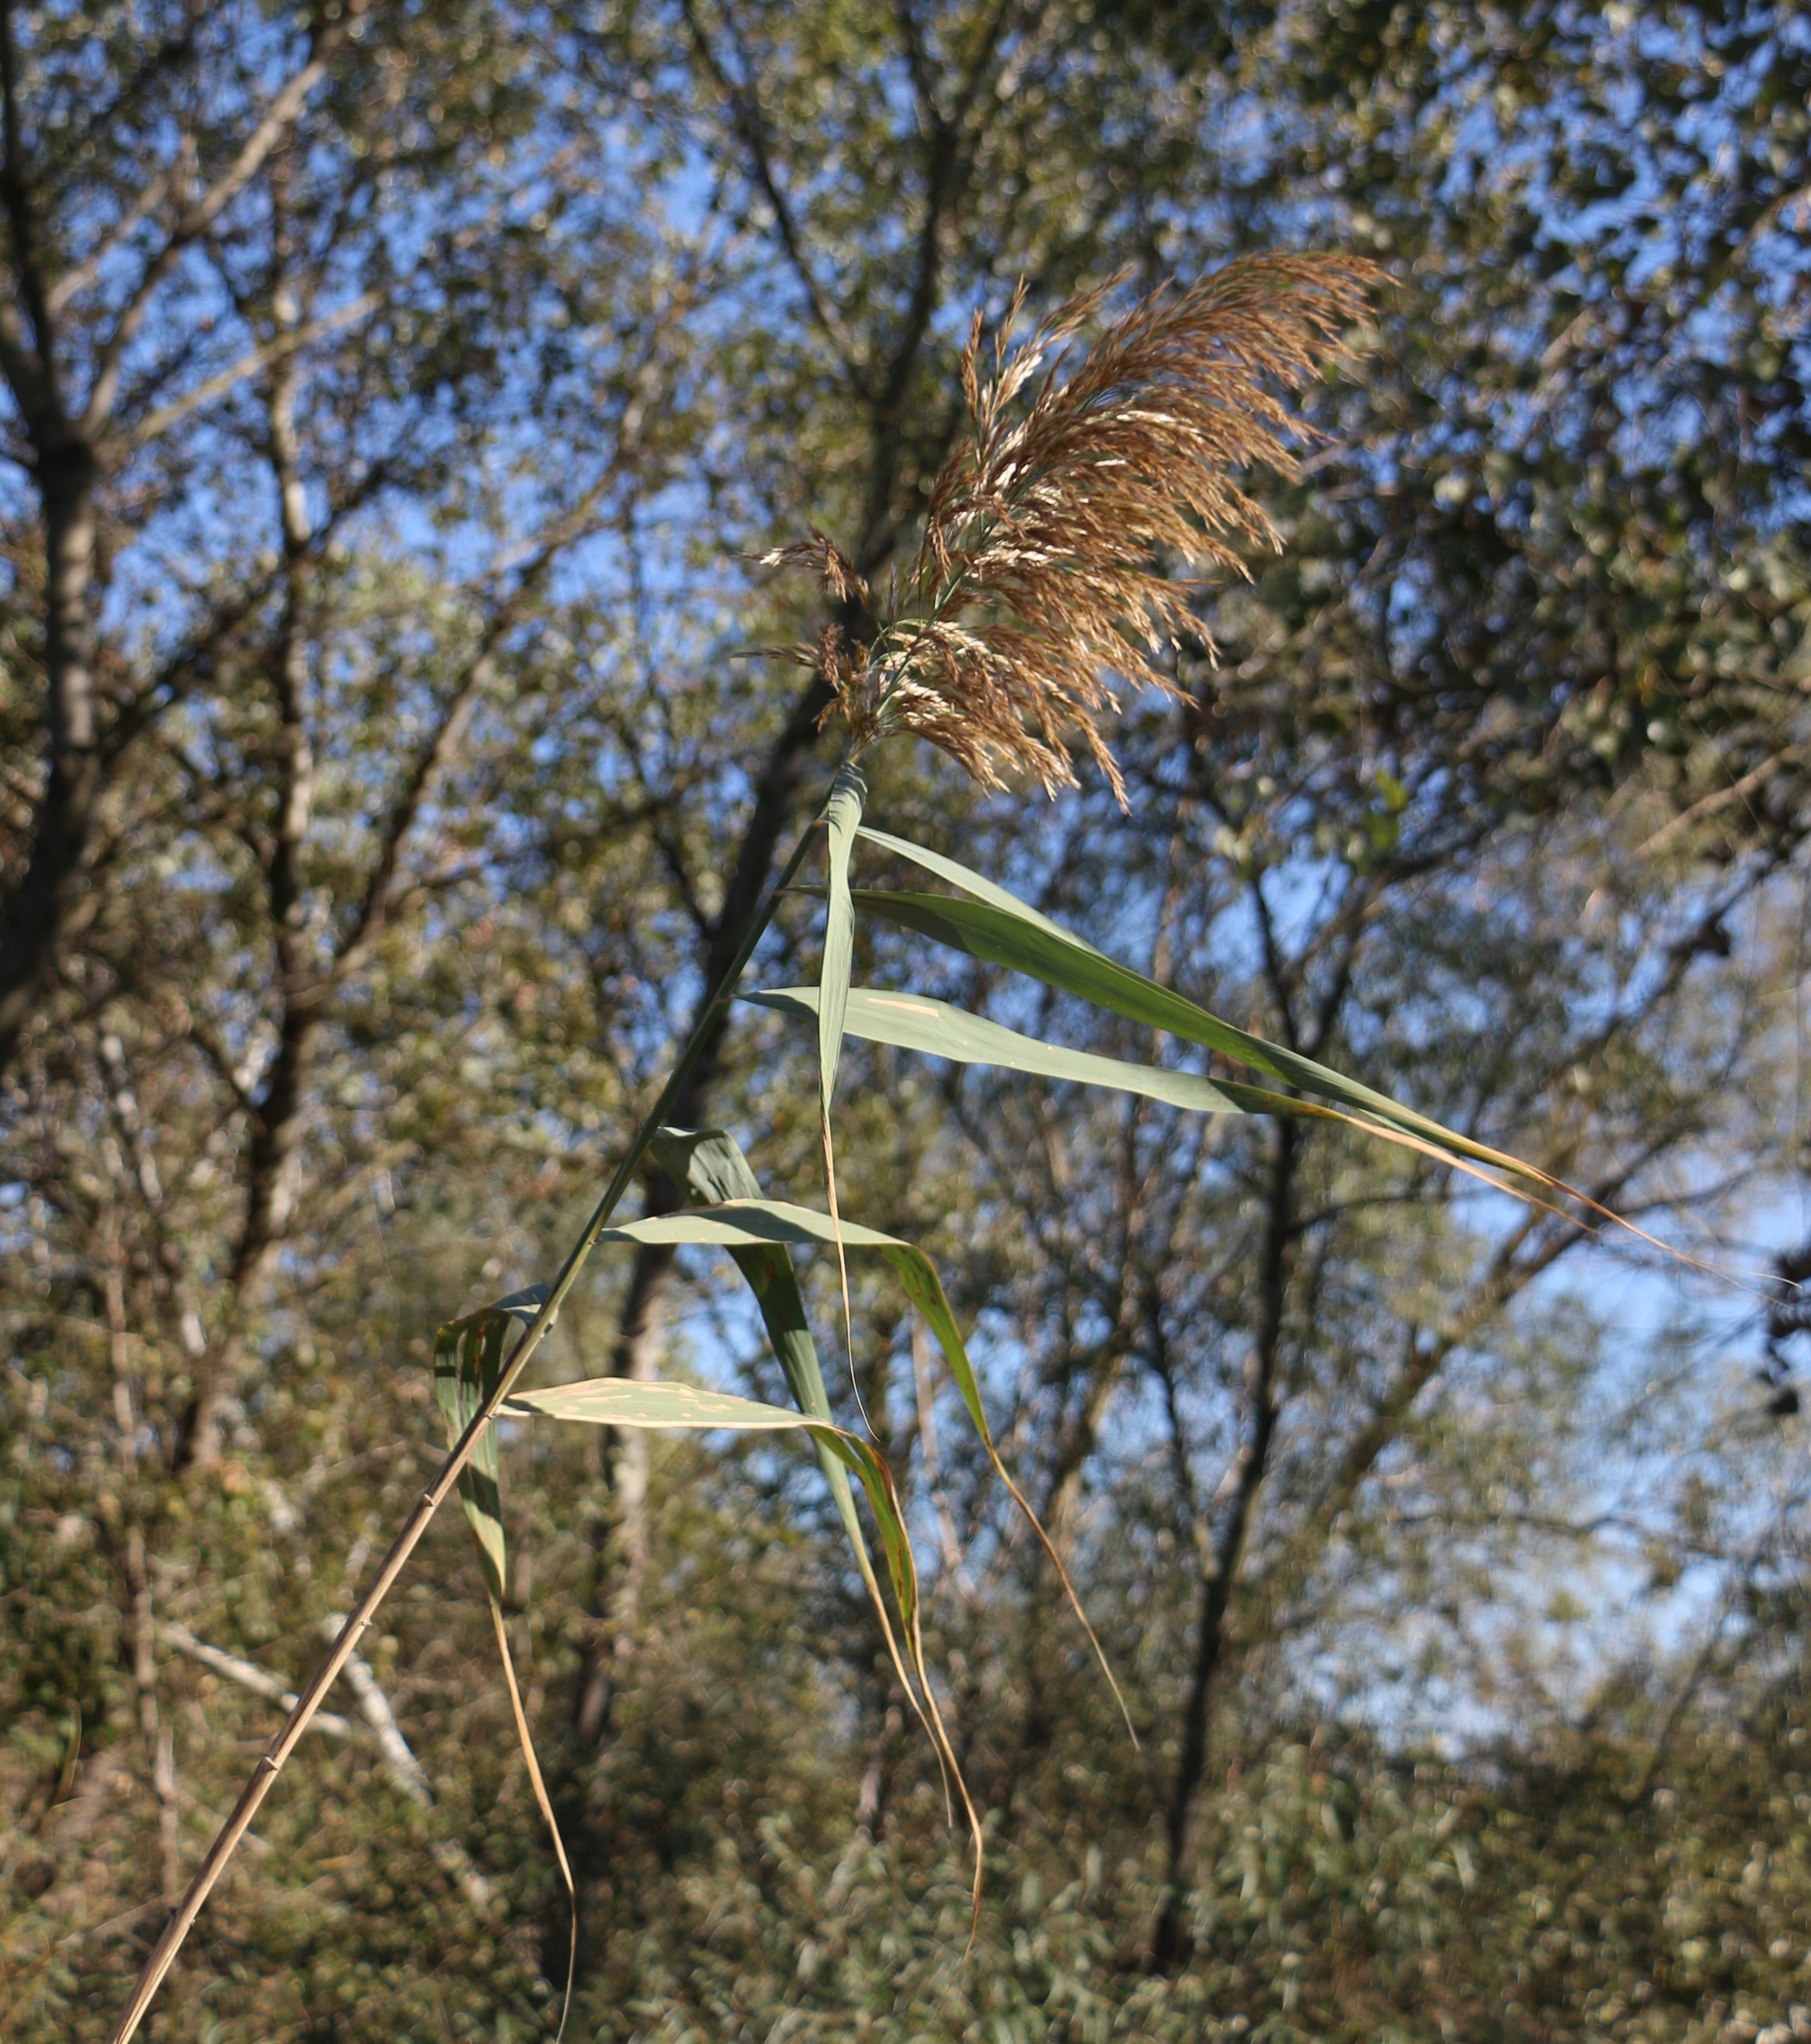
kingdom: Plantae
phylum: Tracheophyta
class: Liliopsida
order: Poales
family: Poaceae
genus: Phragmites
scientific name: Phragmites australis
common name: Common reed
